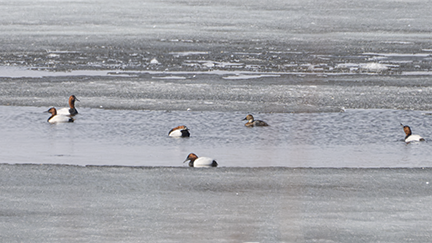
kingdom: Animalia
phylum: Chordata
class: Aves
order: Anseriformes
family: Anatidae
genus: Aythya
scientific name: Aythya valisineria
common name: Canvasback
